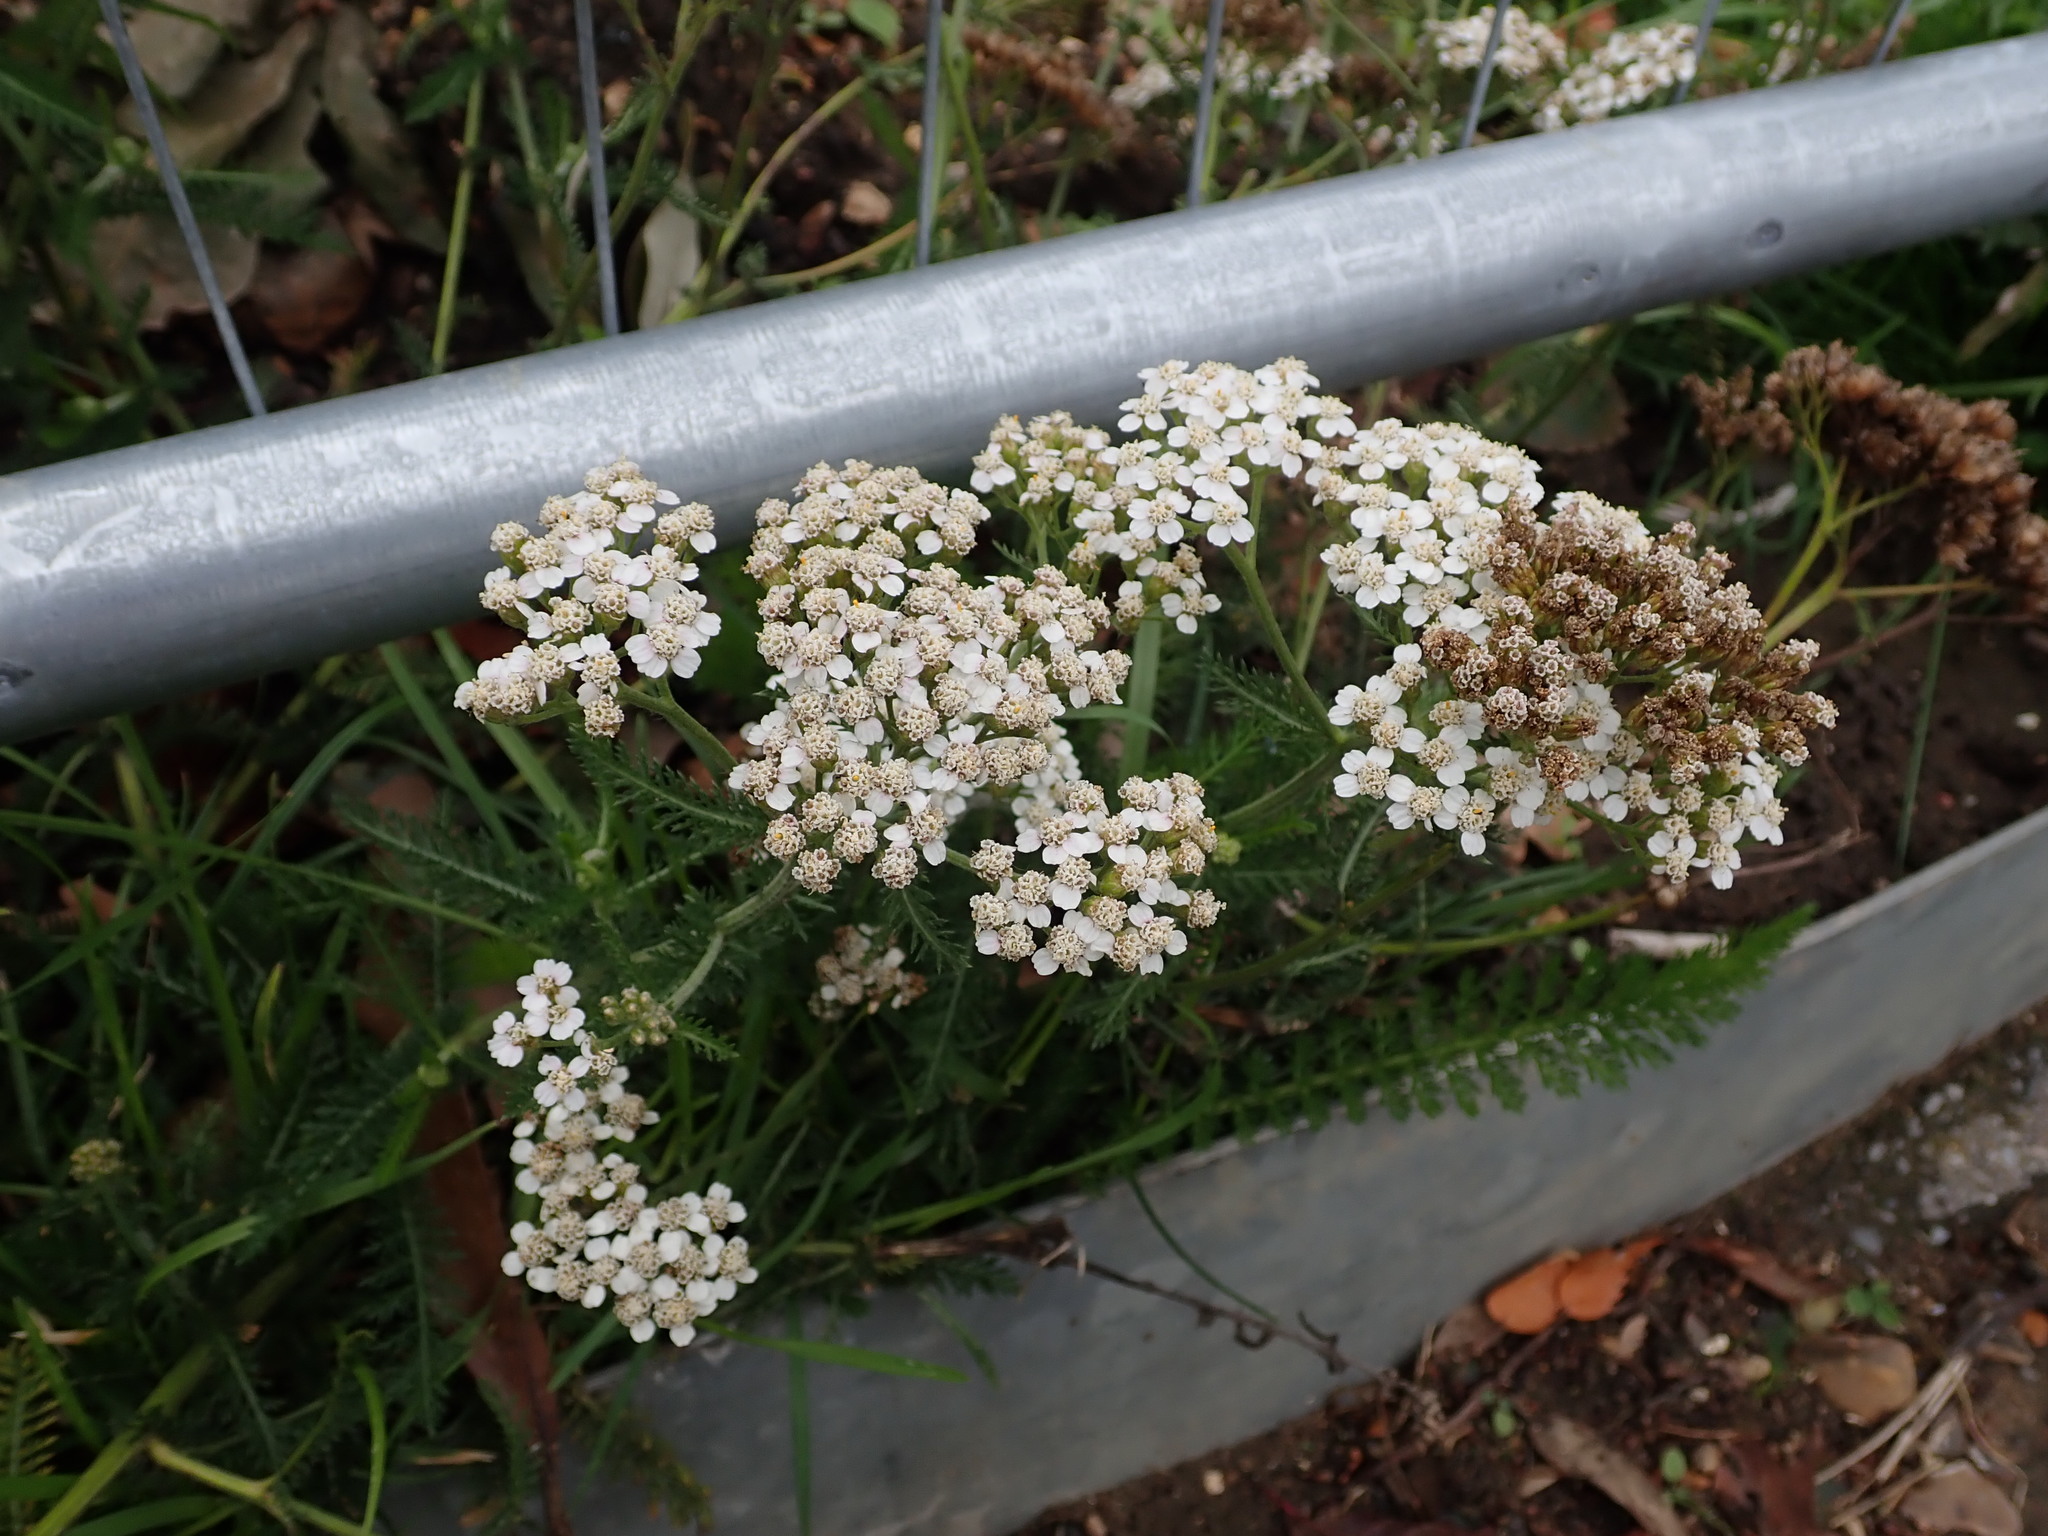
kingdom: Plantae
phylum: Tracheophyta
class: Magnoliopsida
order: Asterales
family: Asteraceae
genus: Achillea
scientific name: Achillea millefolium
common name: Yarrow
